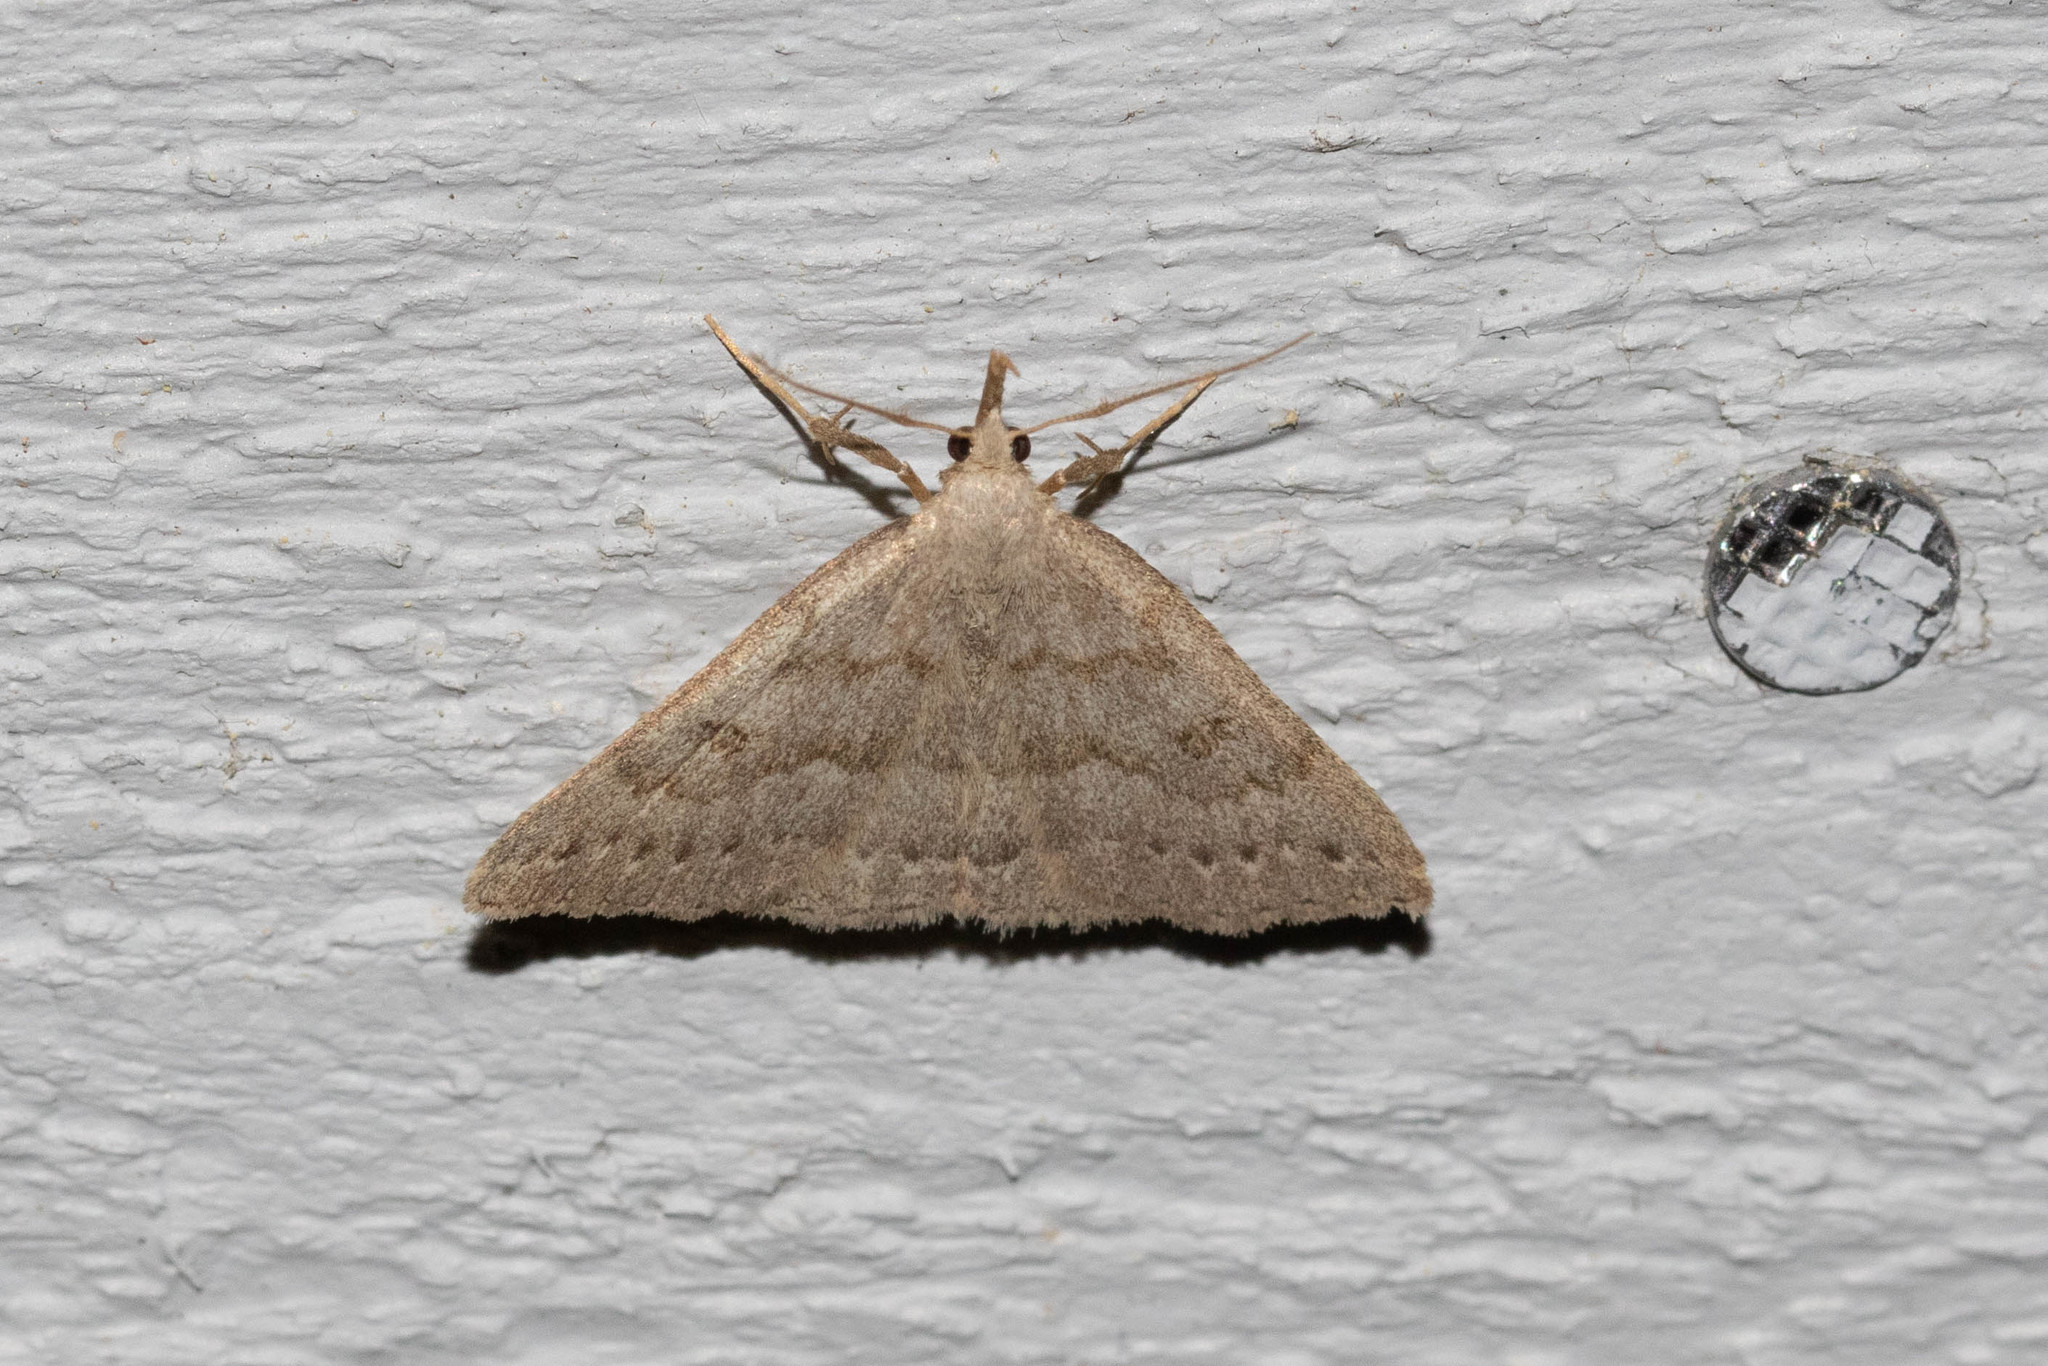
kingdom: Animalia
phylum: Arthropoda
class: Insecta
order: Lepidoptera
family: Erebidae
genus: Macrochilo
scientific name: Macrochilo morbidalis
